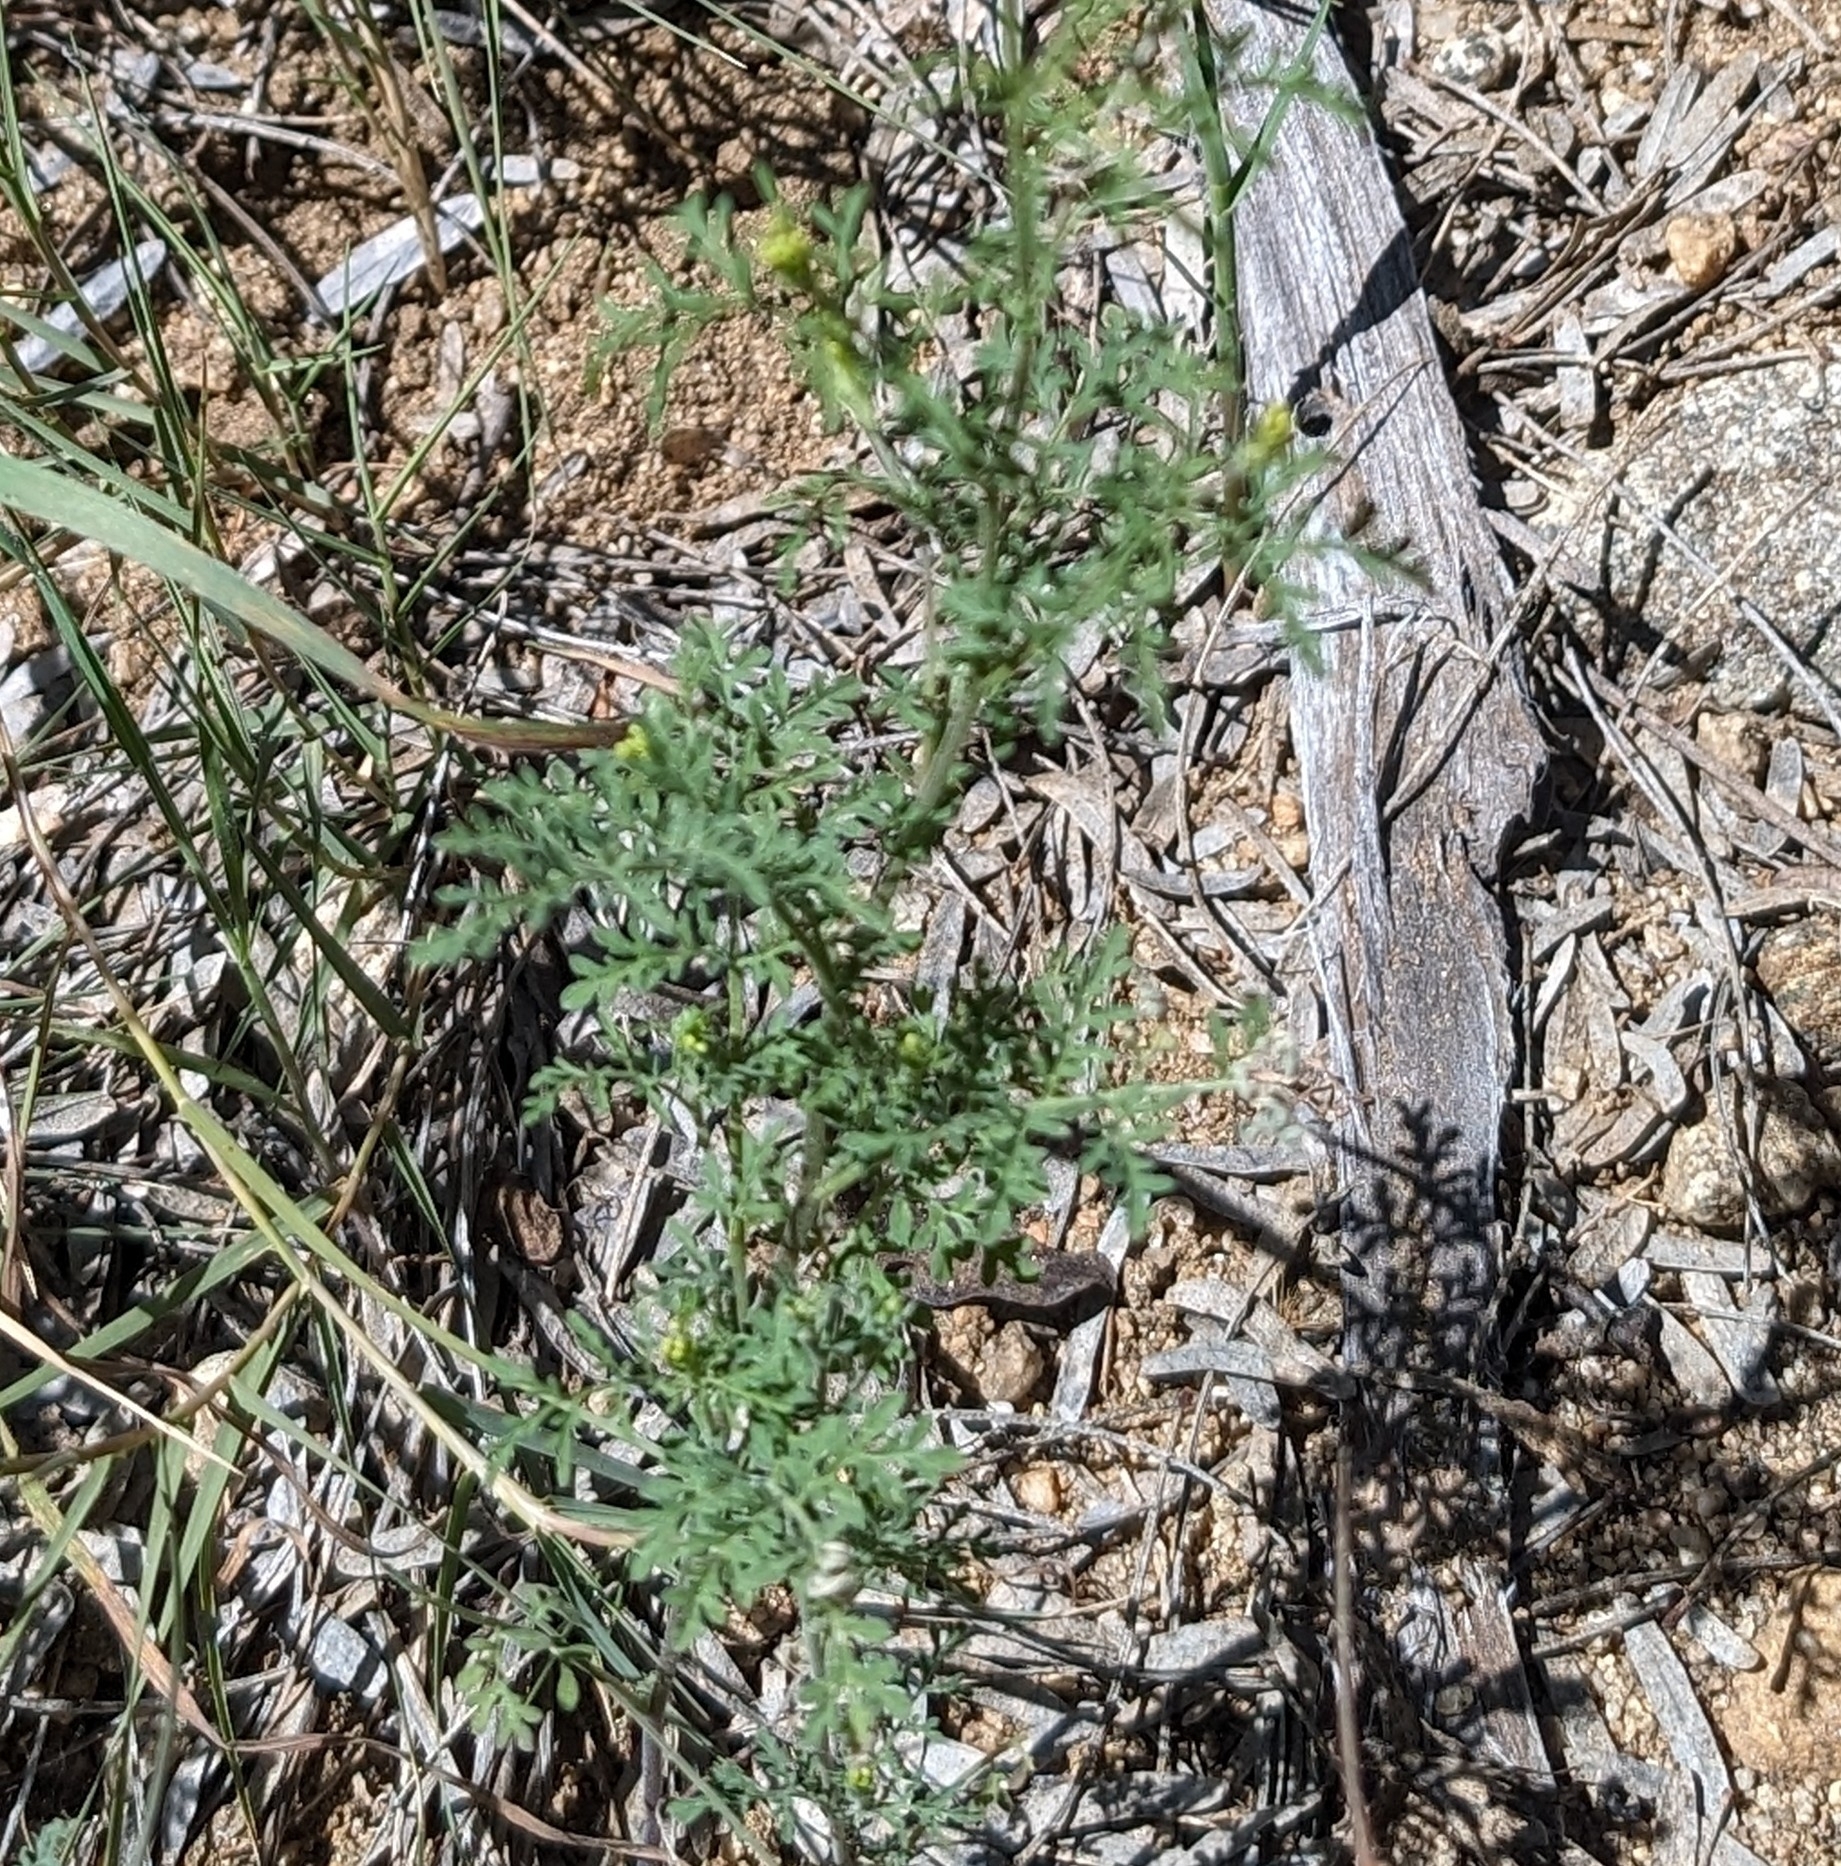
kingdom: Plantae
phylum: Tracheophyta
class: Magnoliopsida
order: Brassicales
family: Brassicaceae
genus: Descurainia
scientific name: Descurainia pinnata
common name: Western tansy mustard
